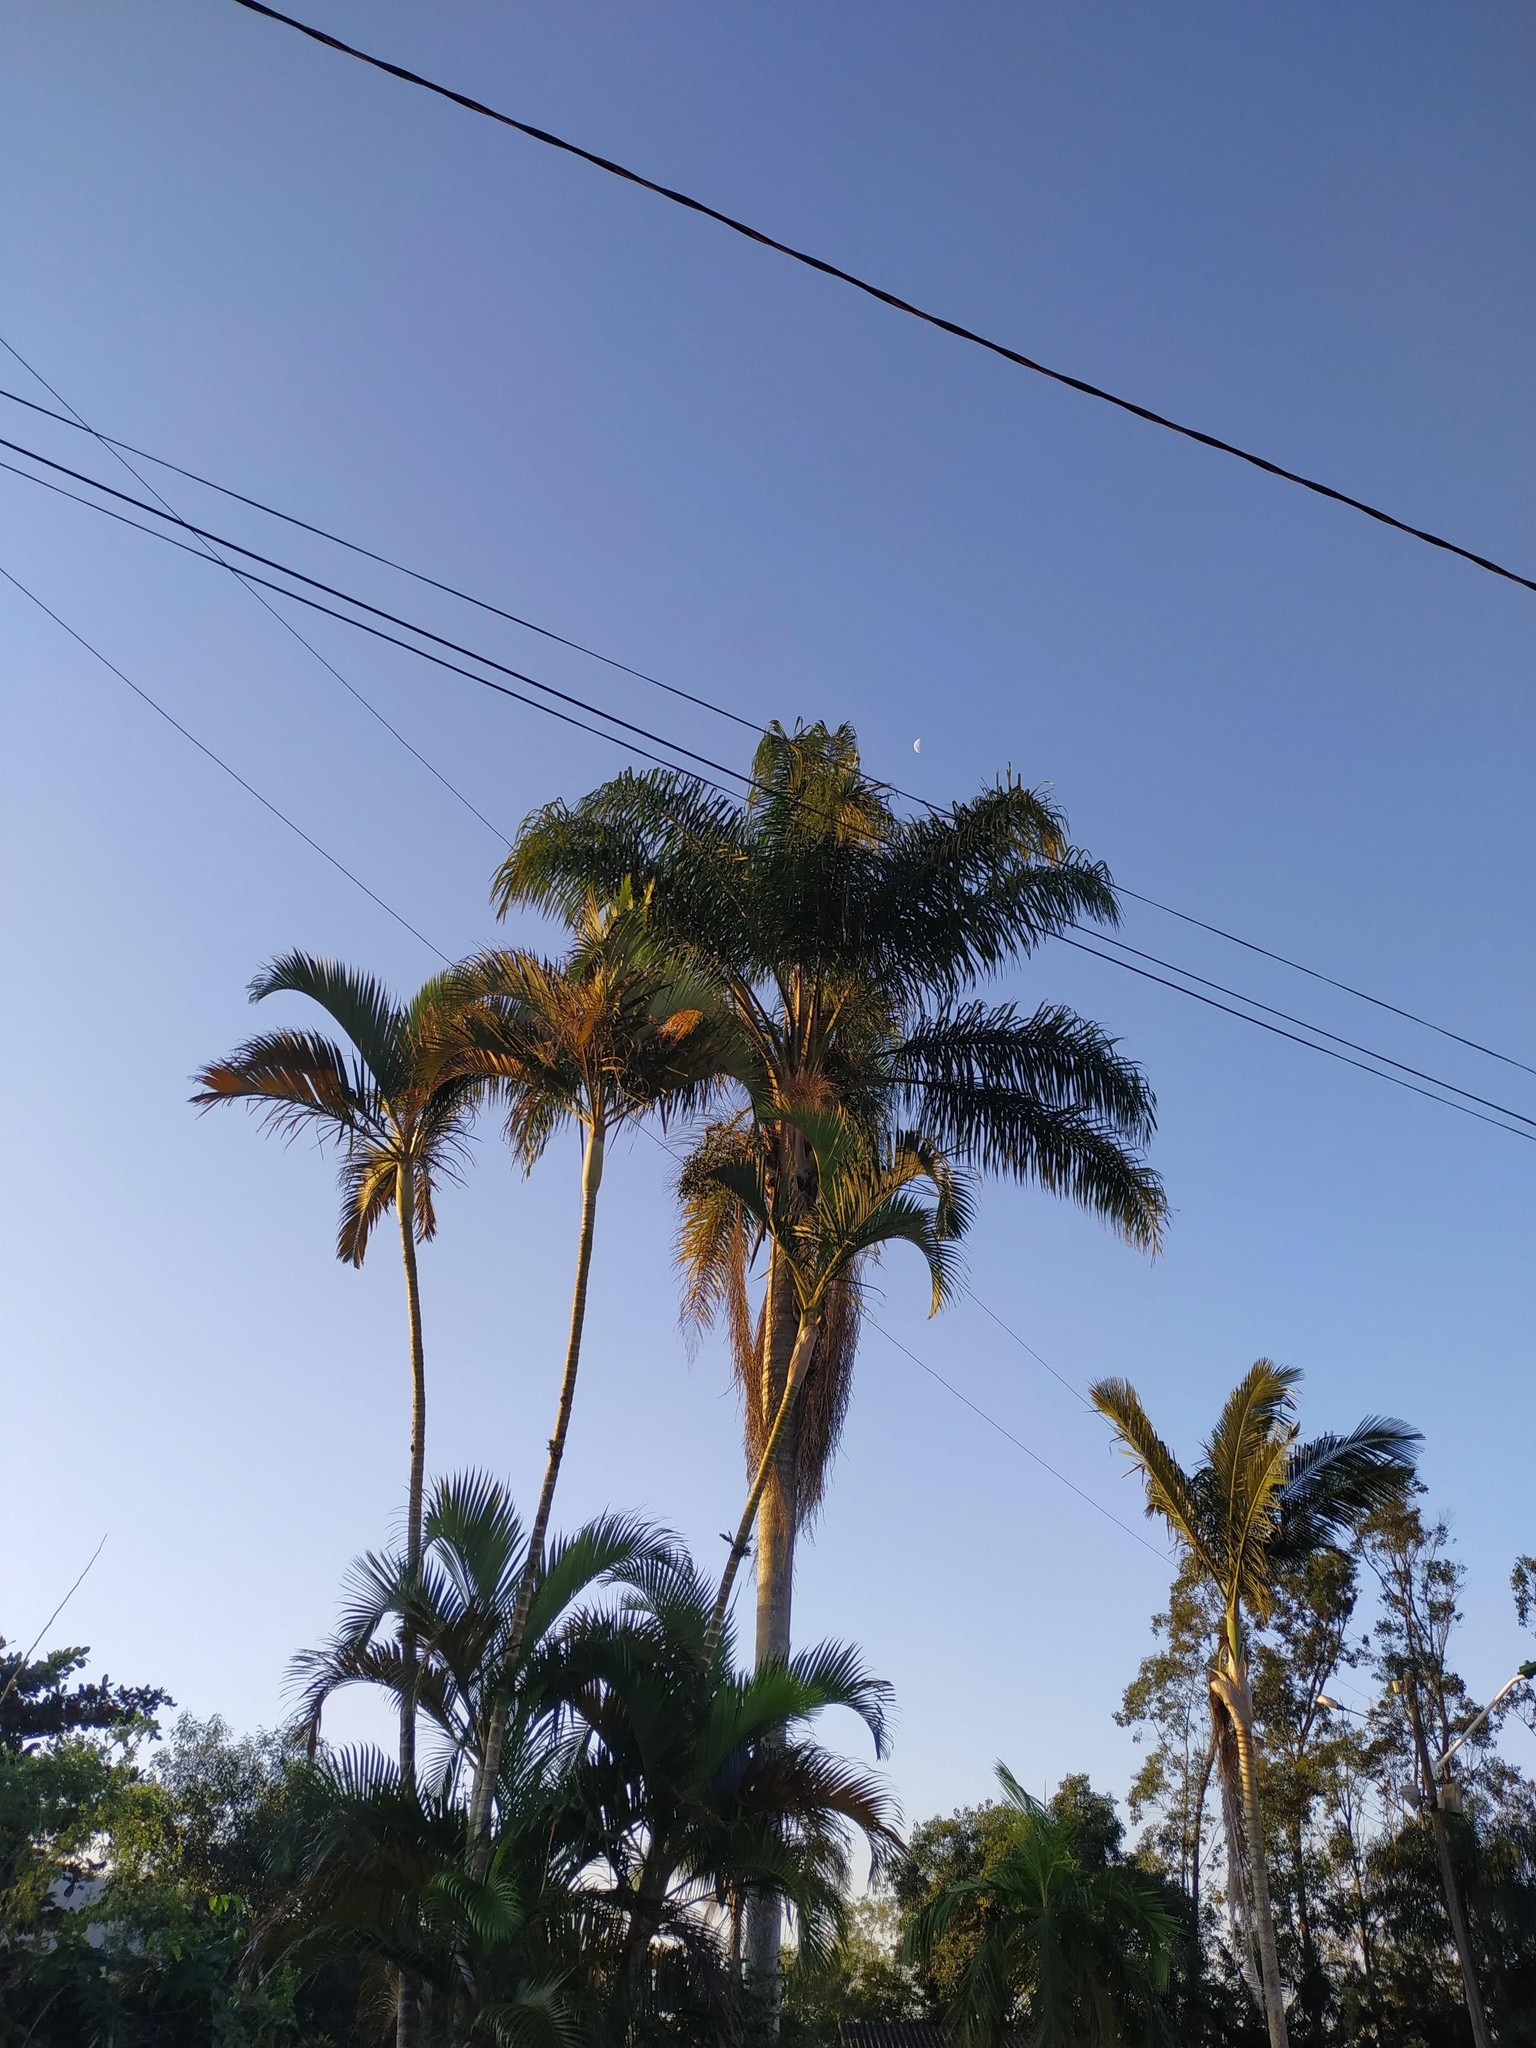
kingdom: Plantae
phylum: Tracheophyta
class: Liliopsida
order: Arecales
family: Arecaceae
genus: Syagrus
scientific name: Syagrus romanzoffiana
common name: Queen palm
